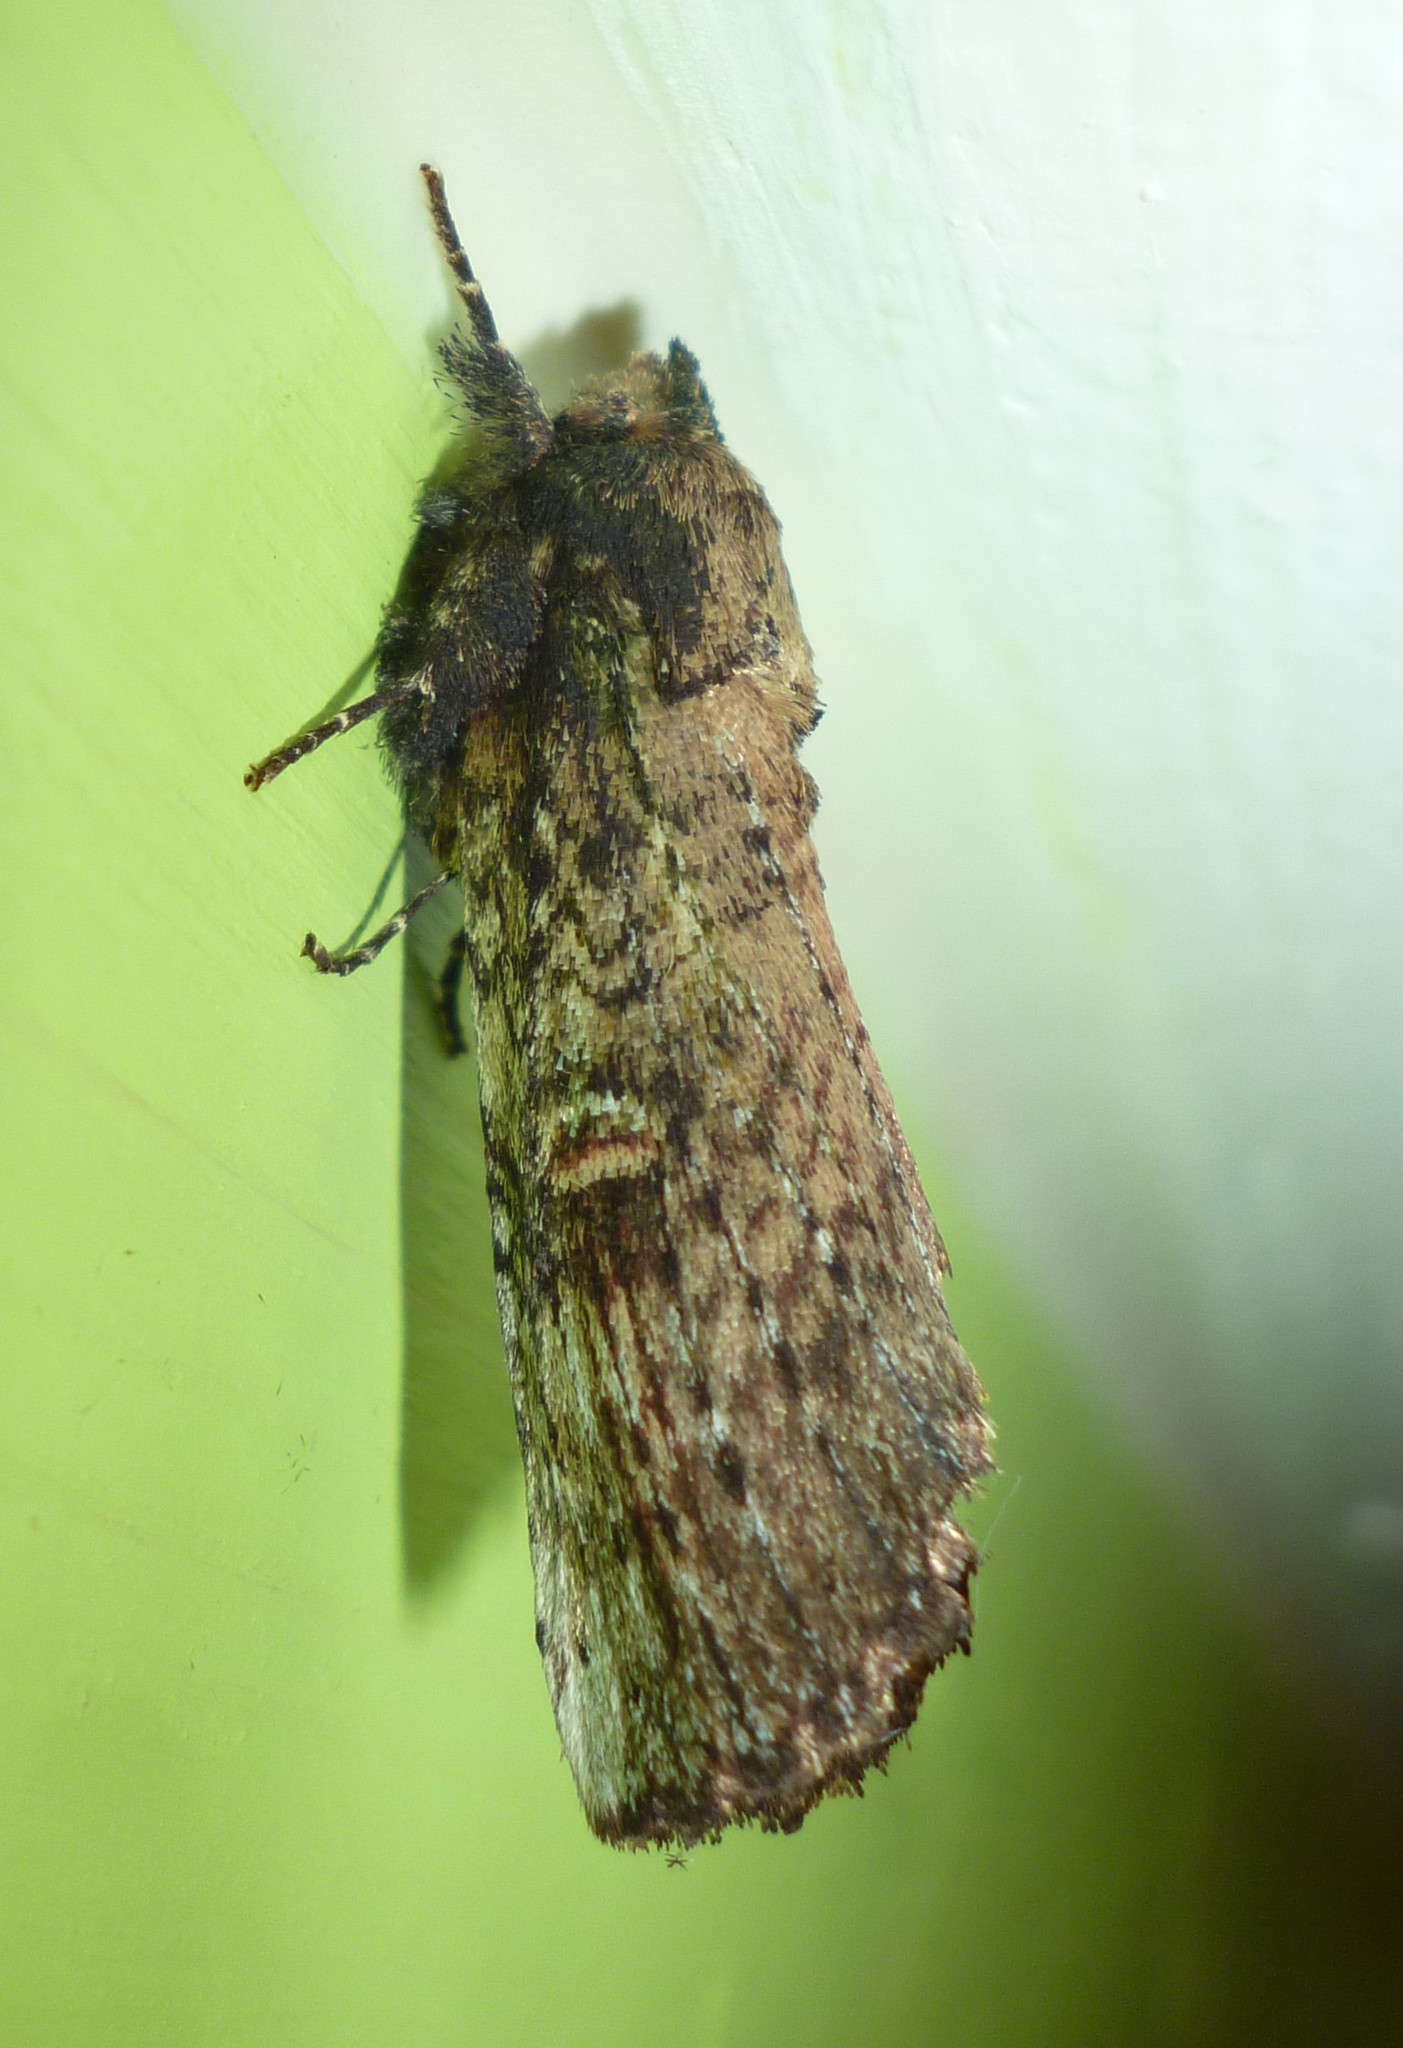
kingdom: Animalia
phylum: Arthropoda
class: Insecta
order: Lepidoptera
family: Notodontidae
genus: Schizura
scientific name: Schizura ipomaeae
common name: Morning-glory prominent
